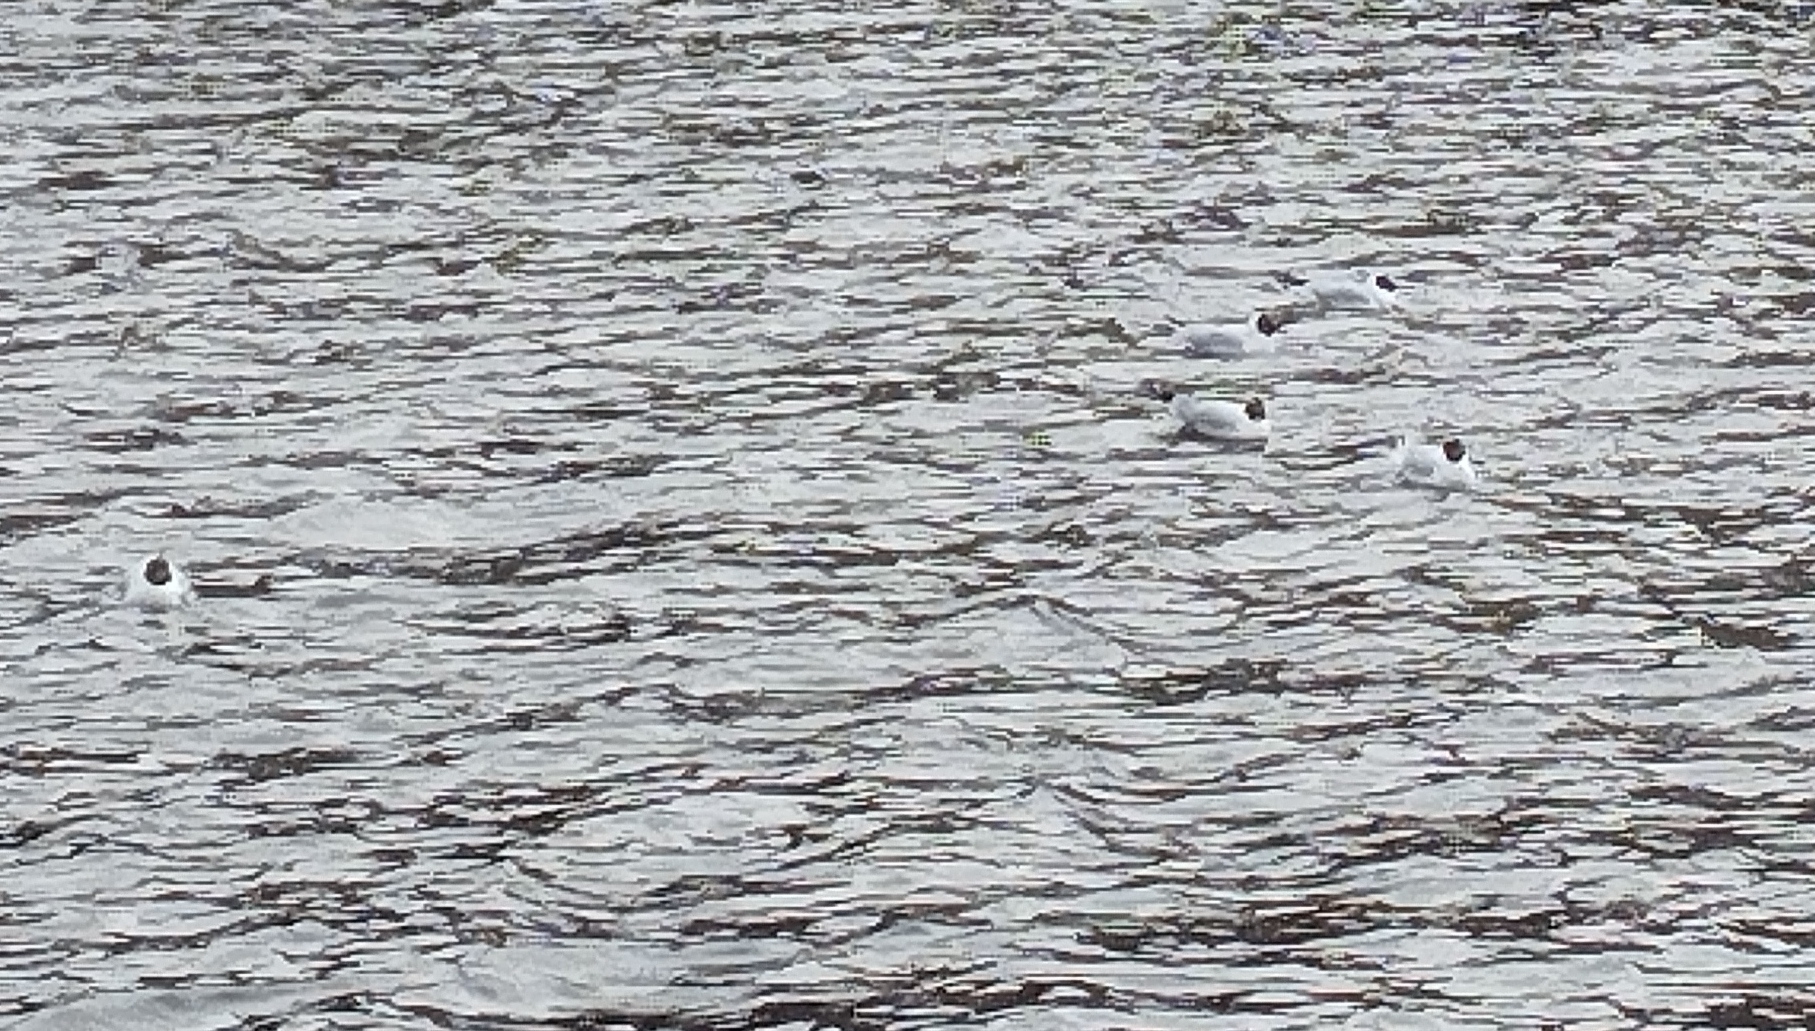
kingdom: Animalia
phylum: Chordata
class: Aves
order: Charadriiformes
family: Laridae
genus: Chroicocephalus
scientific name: Chroicocephalus ridibundus
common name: Black-headed gull
